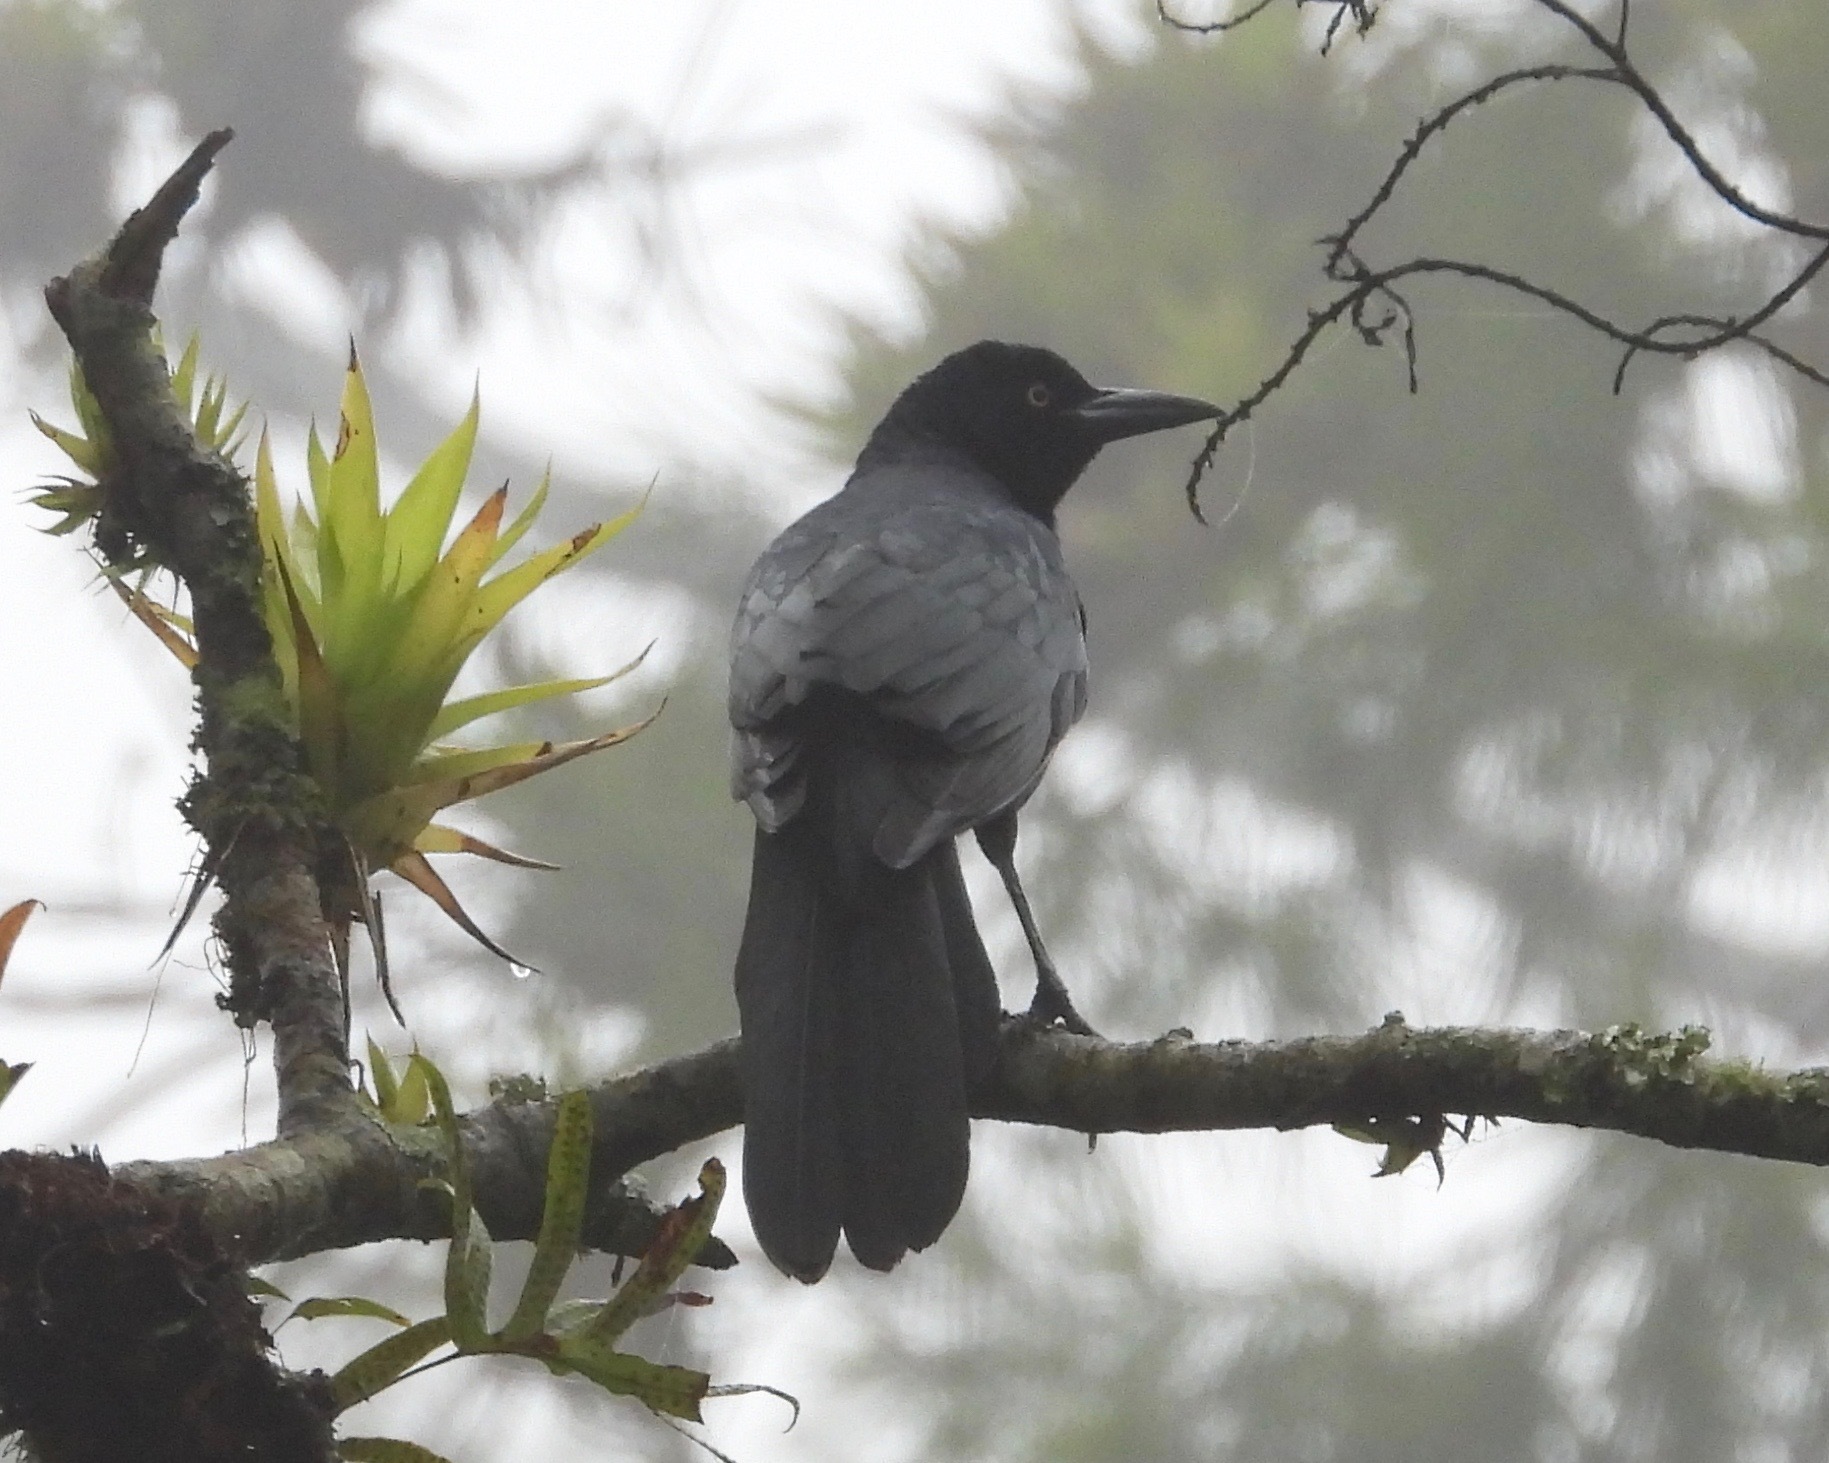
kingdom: Animalia
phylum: Chordata
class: Aves
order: Passeriformes
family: Icteridae
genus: Quiscalus
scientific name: Quiscalus mexicanus
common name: Great-tailed grackle
